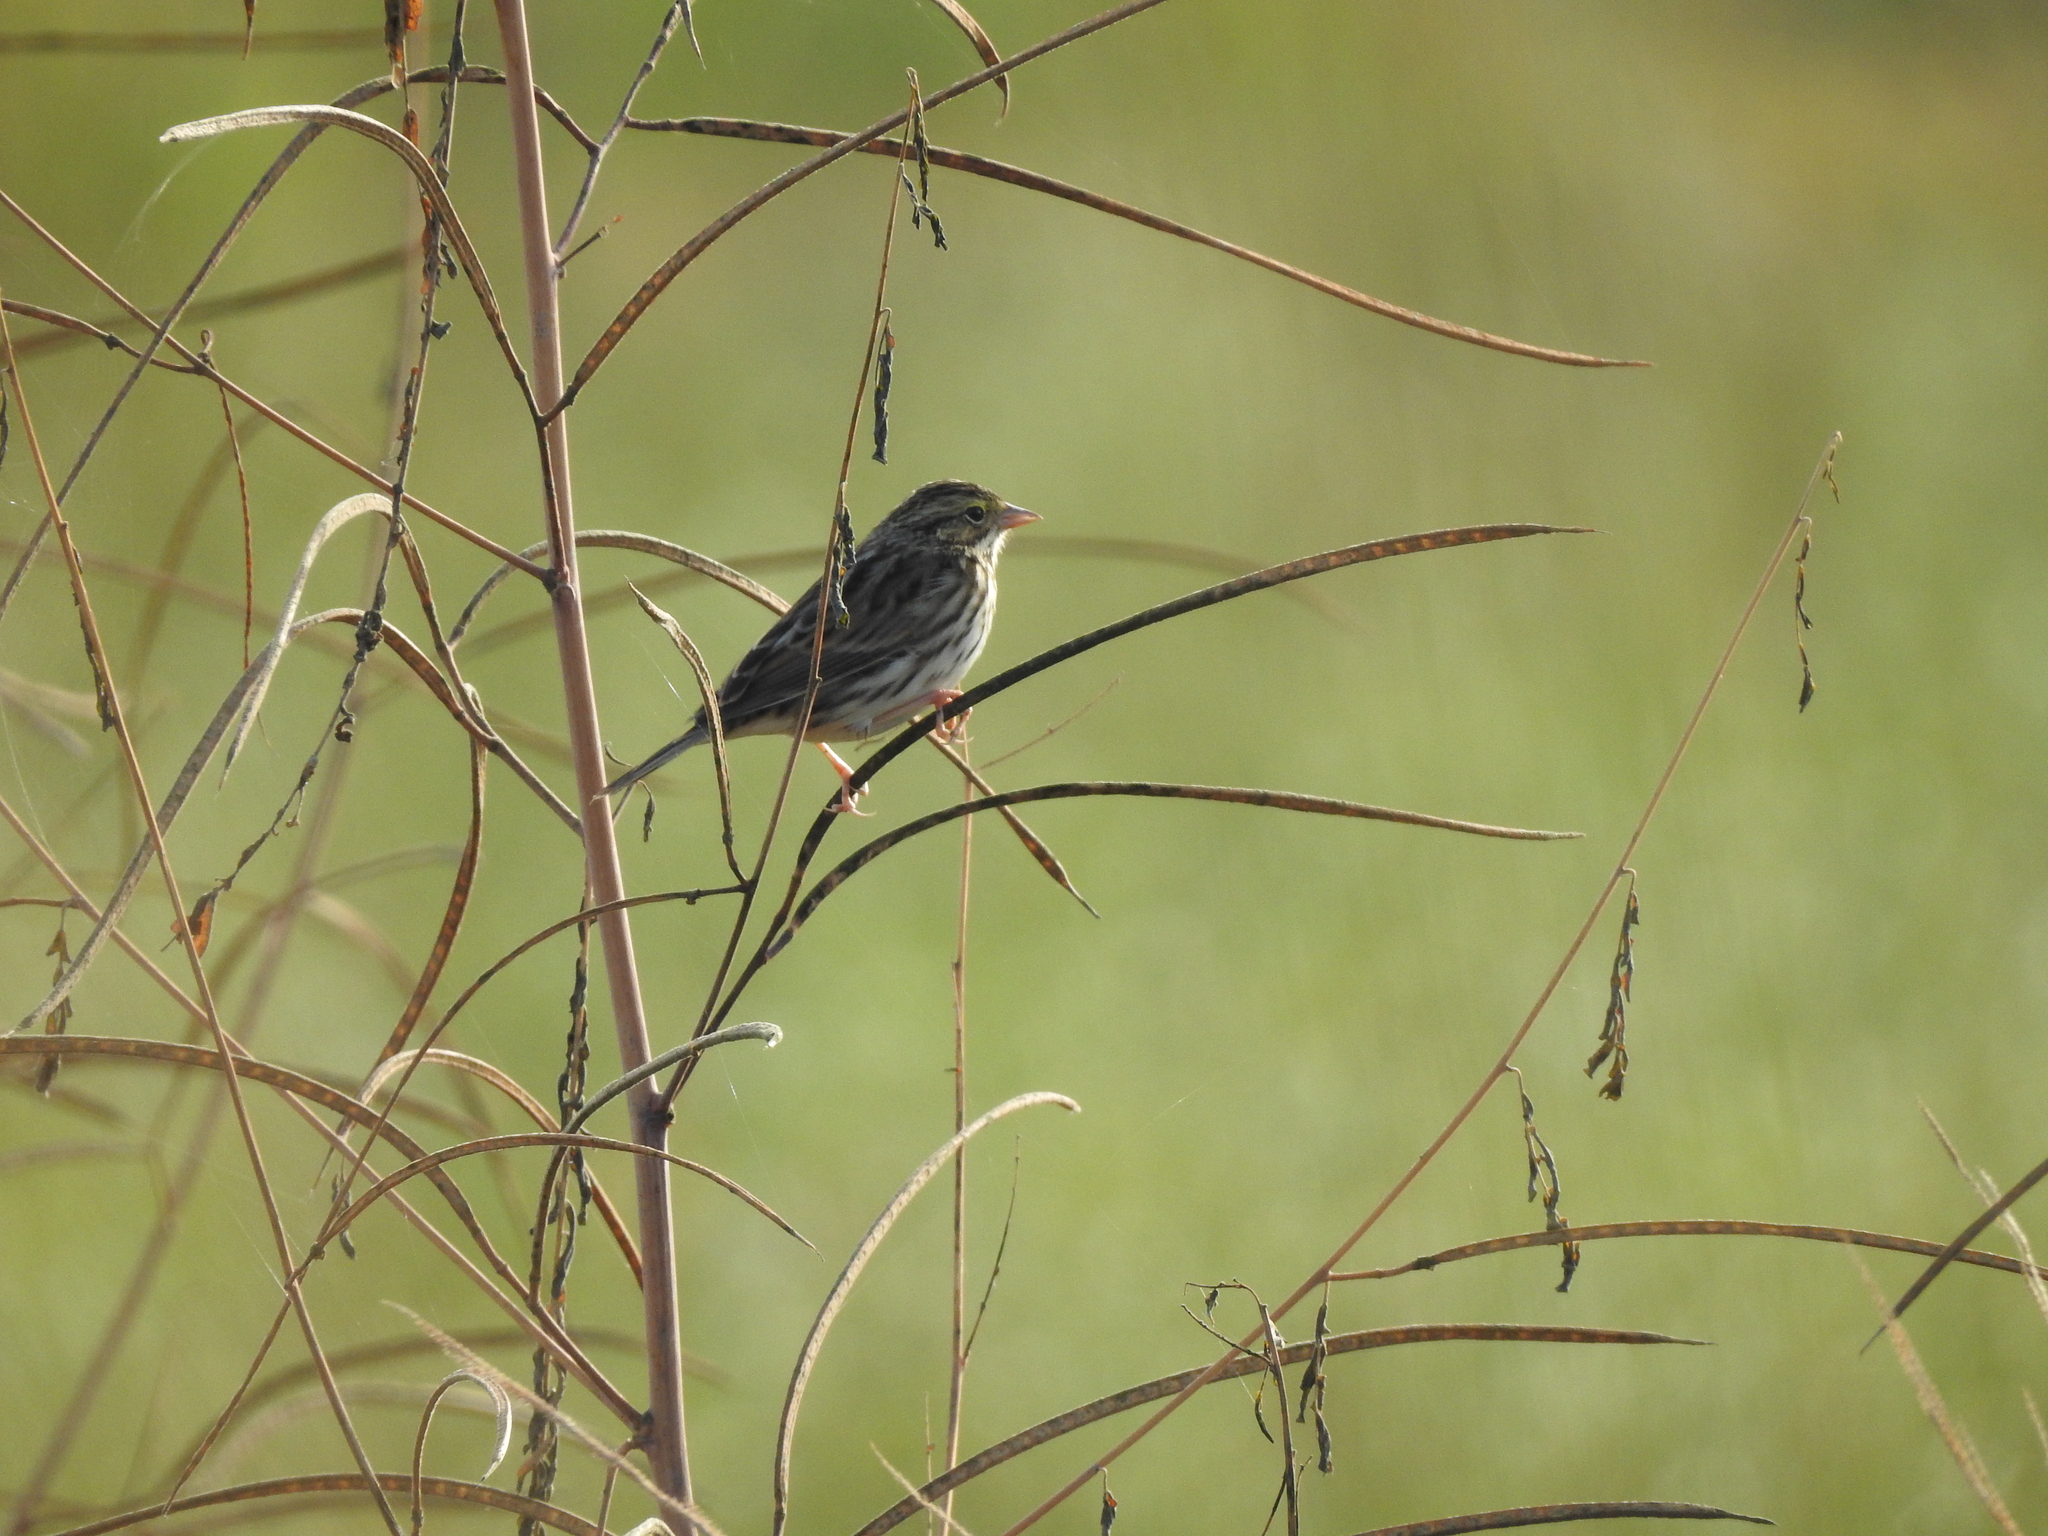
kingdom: Animalia
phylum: Chordata
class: Aves
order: Passeriformes
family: Passerellidae
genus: Passerculus
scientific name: Passerculus sandwichensis
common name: Savannah sparrow
